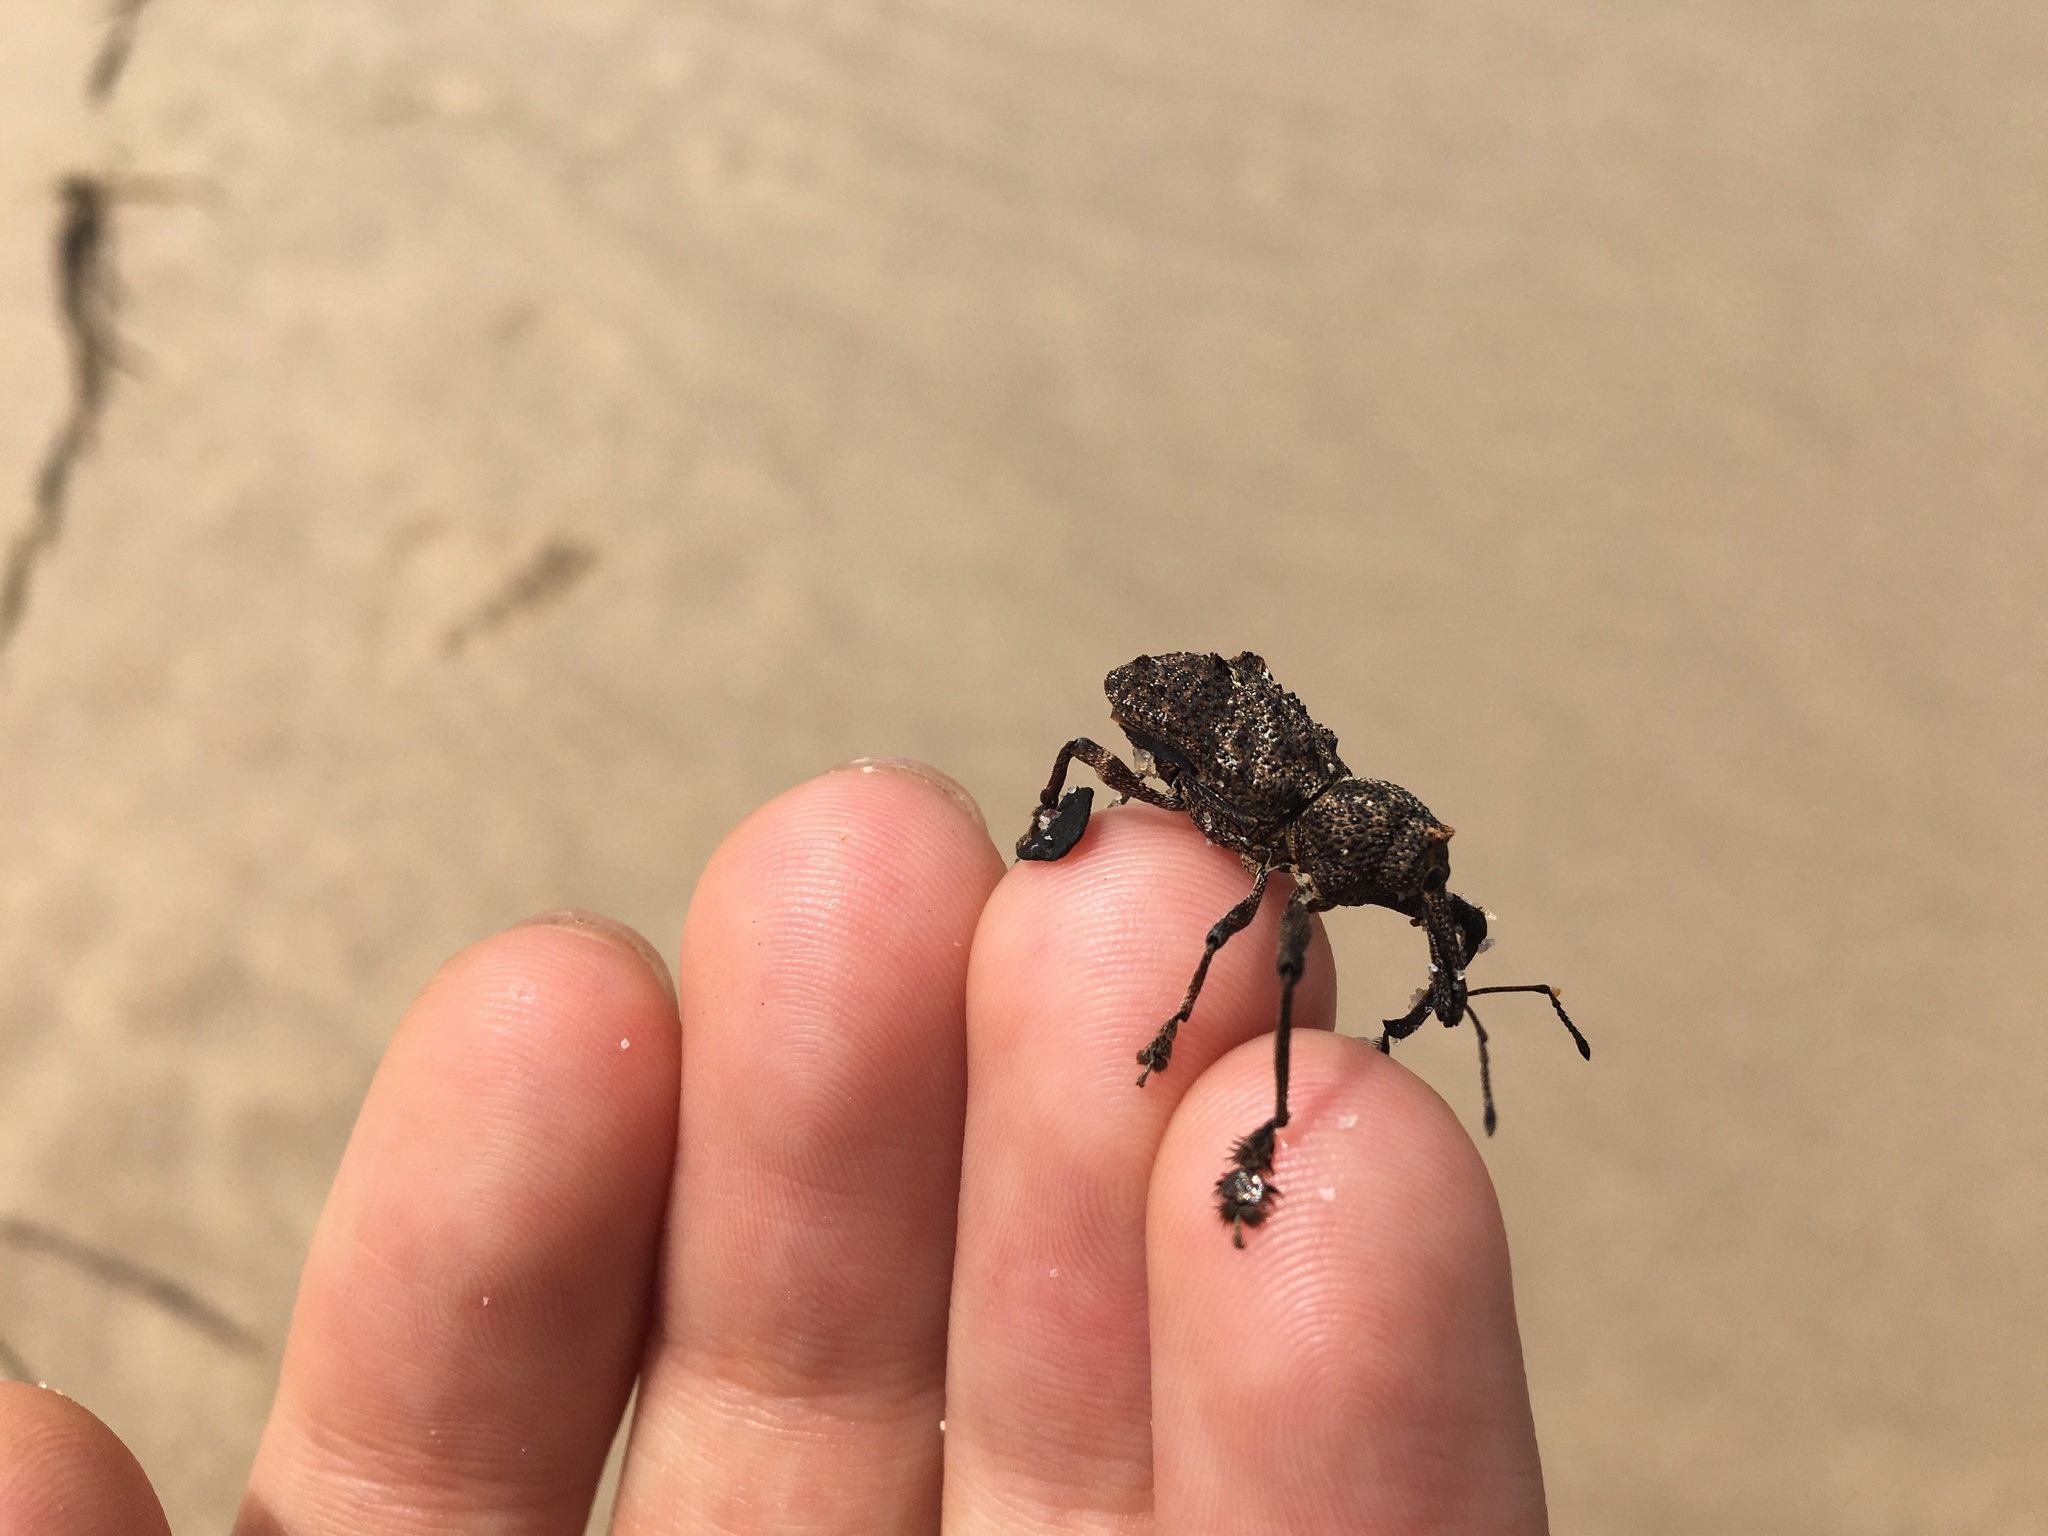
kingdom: Animalia
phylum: Arthropoda
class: Insecta
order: Coleoptera
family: Curculionidae
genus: Orthorhinus
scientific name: Orthorhinus cylindrirostris
